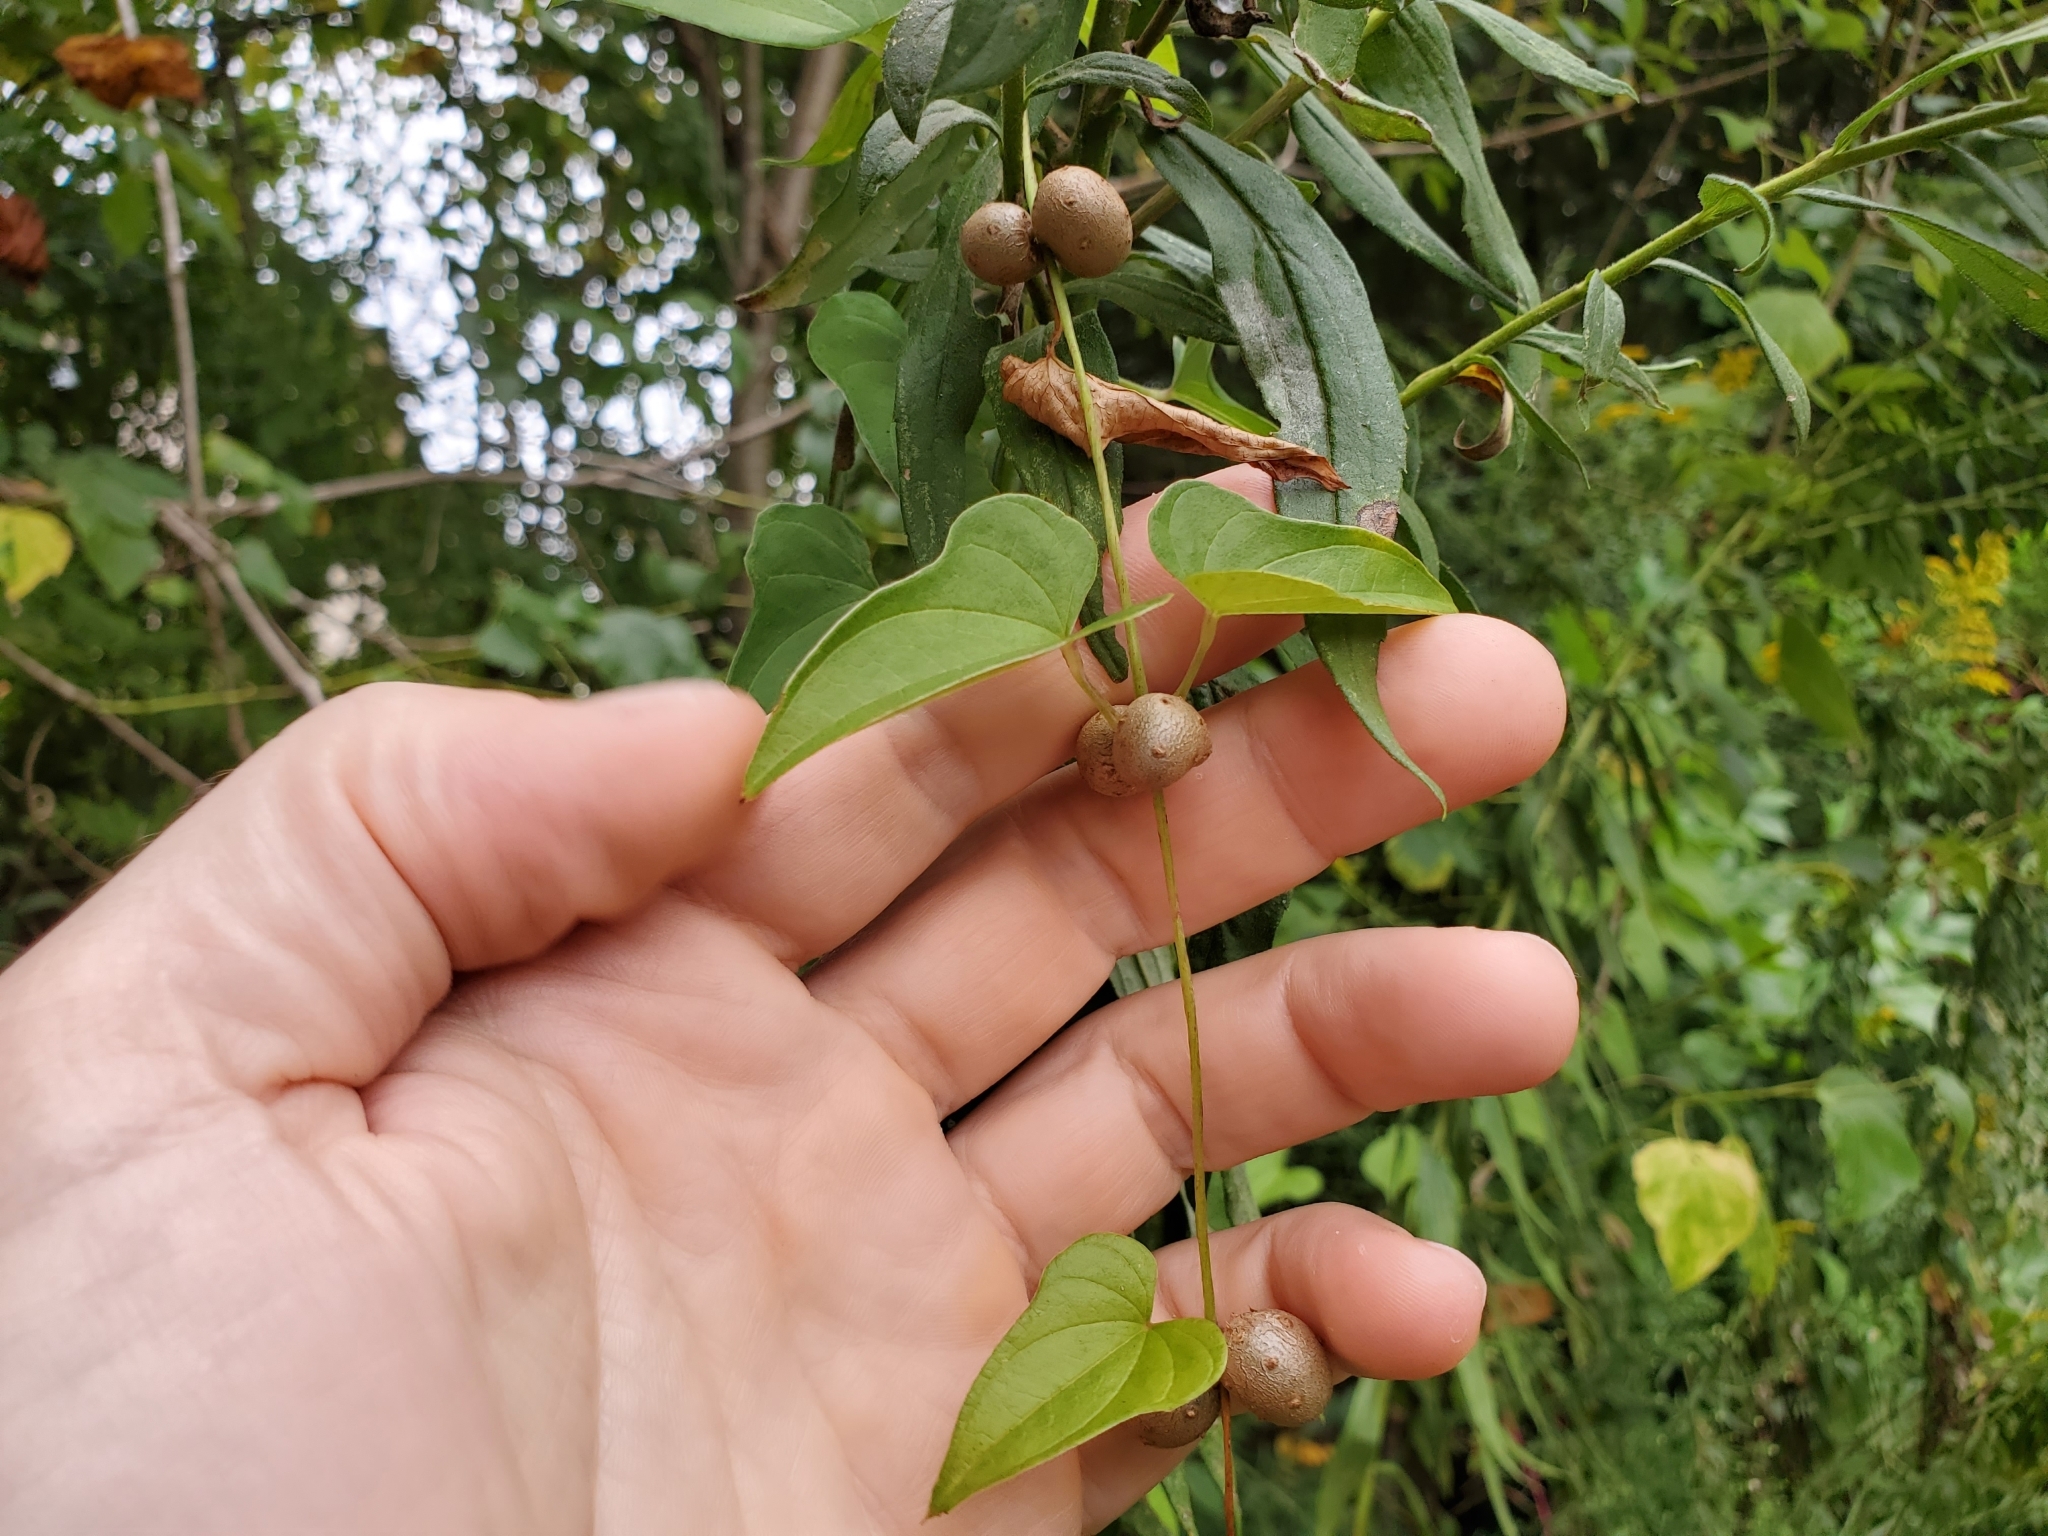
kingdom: Plantae
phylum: Tracheophyta
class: Liliopsida
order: Dioscoreales
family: Dioscoreaceae
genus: Dioscorea
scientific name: Dioscorea polystachya
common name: Chinese yam
